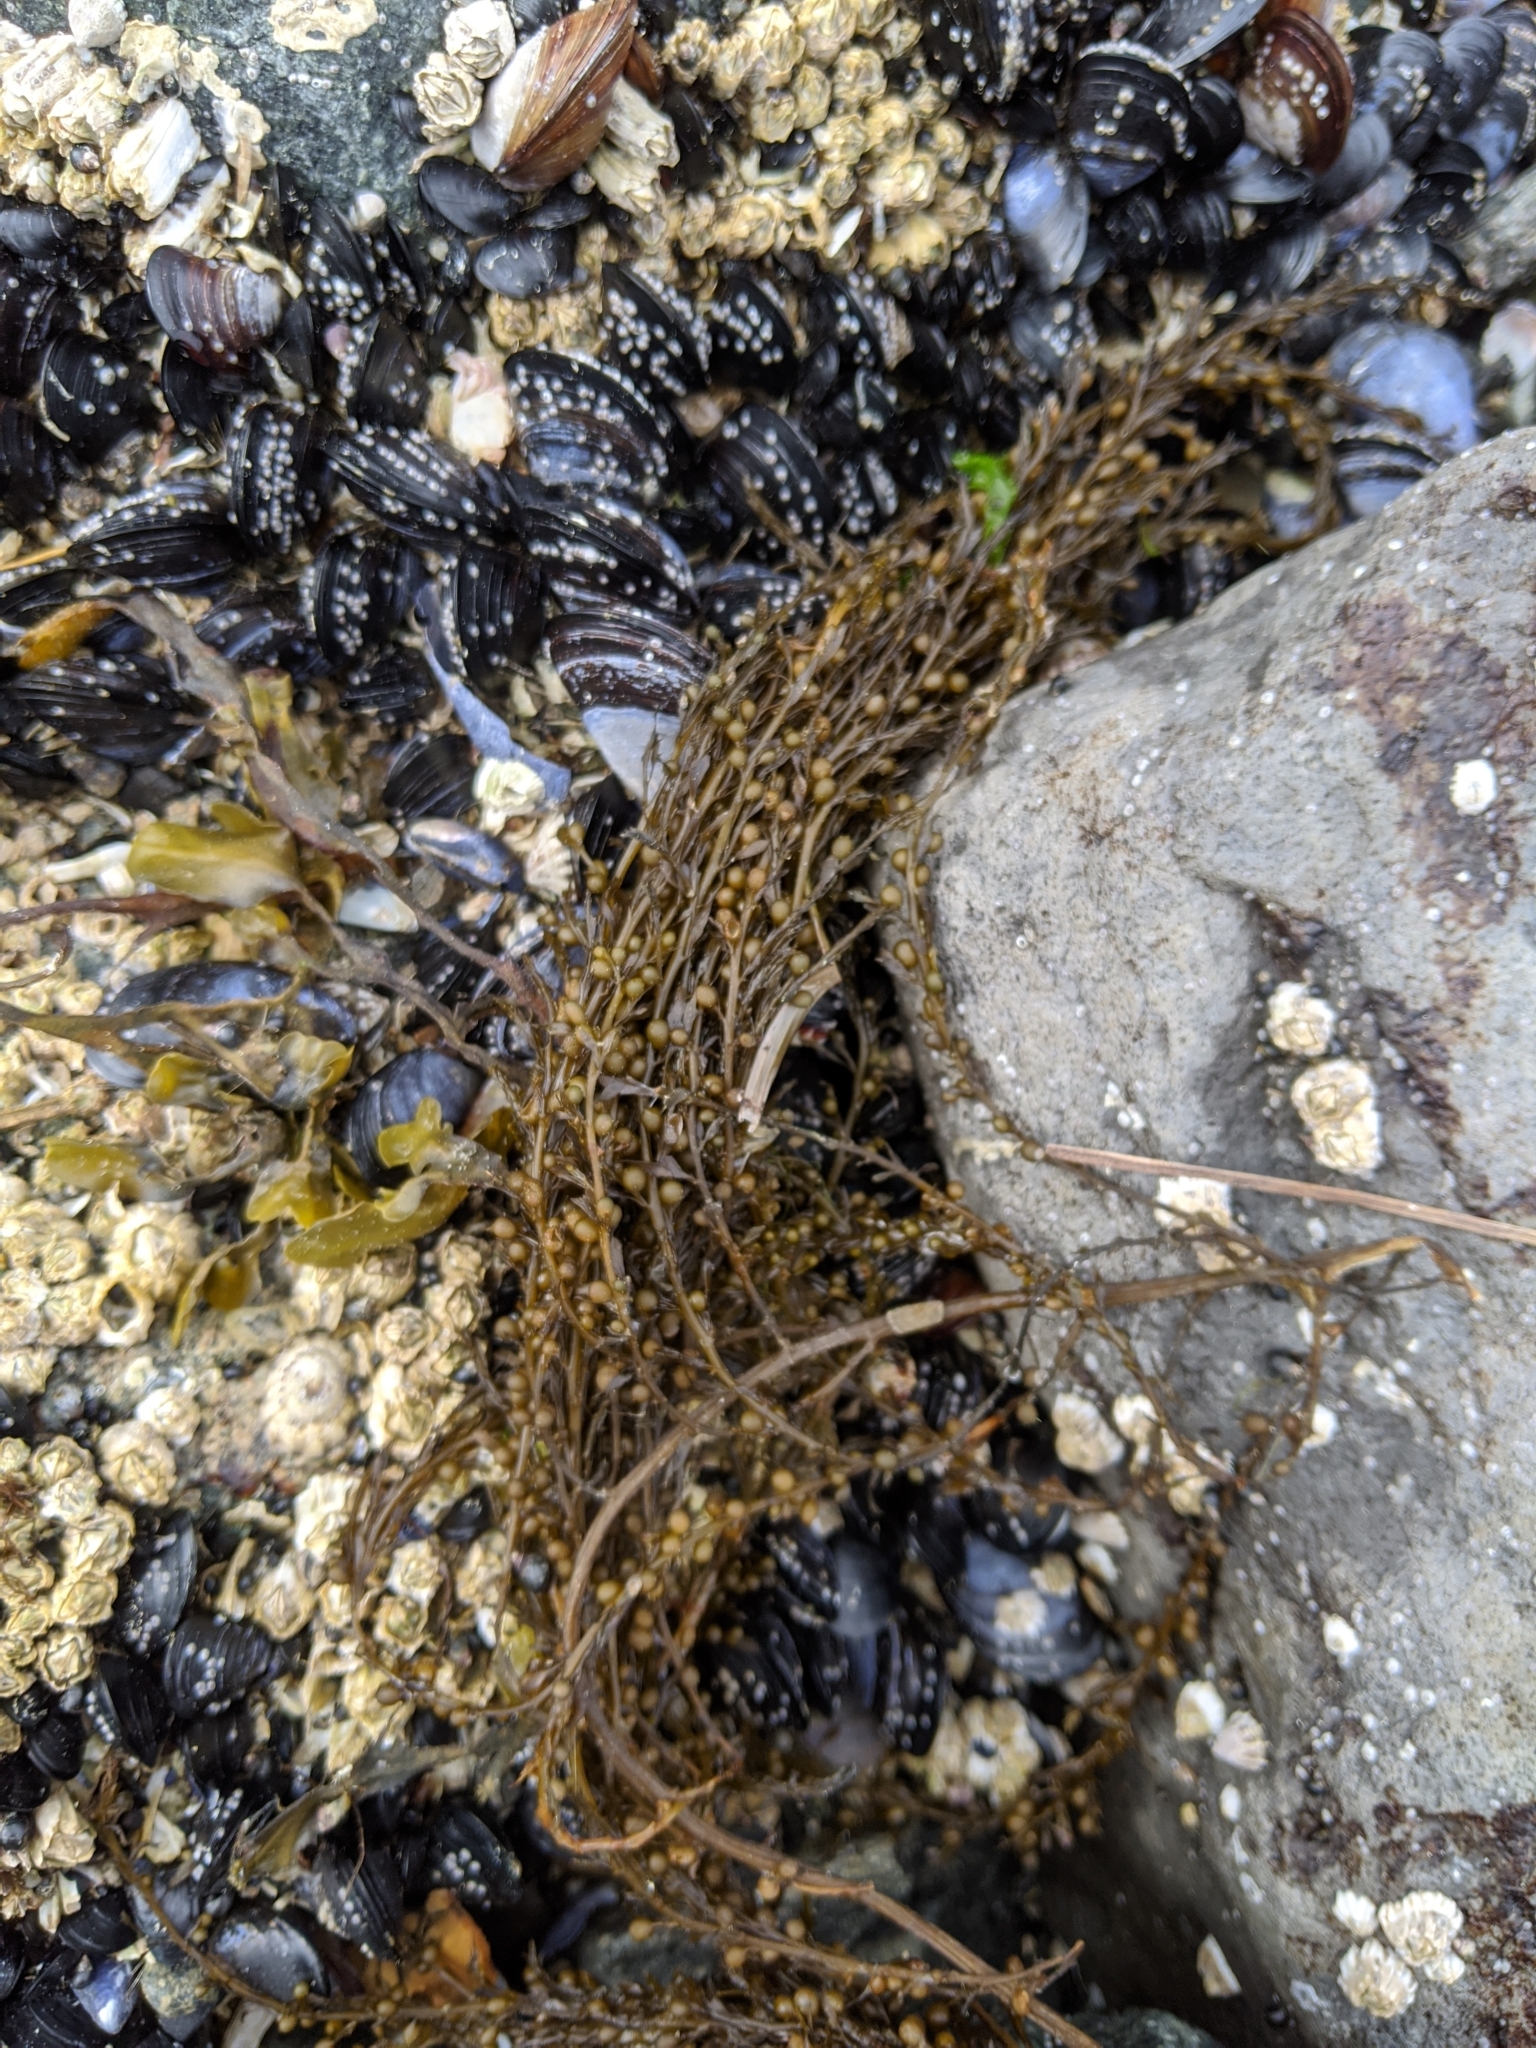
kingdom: Chromista
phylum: Ochrophyta
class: Phaeophyceae
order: Fucales
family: Sargassaceae
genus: Sargassum
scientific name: Sargassum muticum
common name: Japweed
